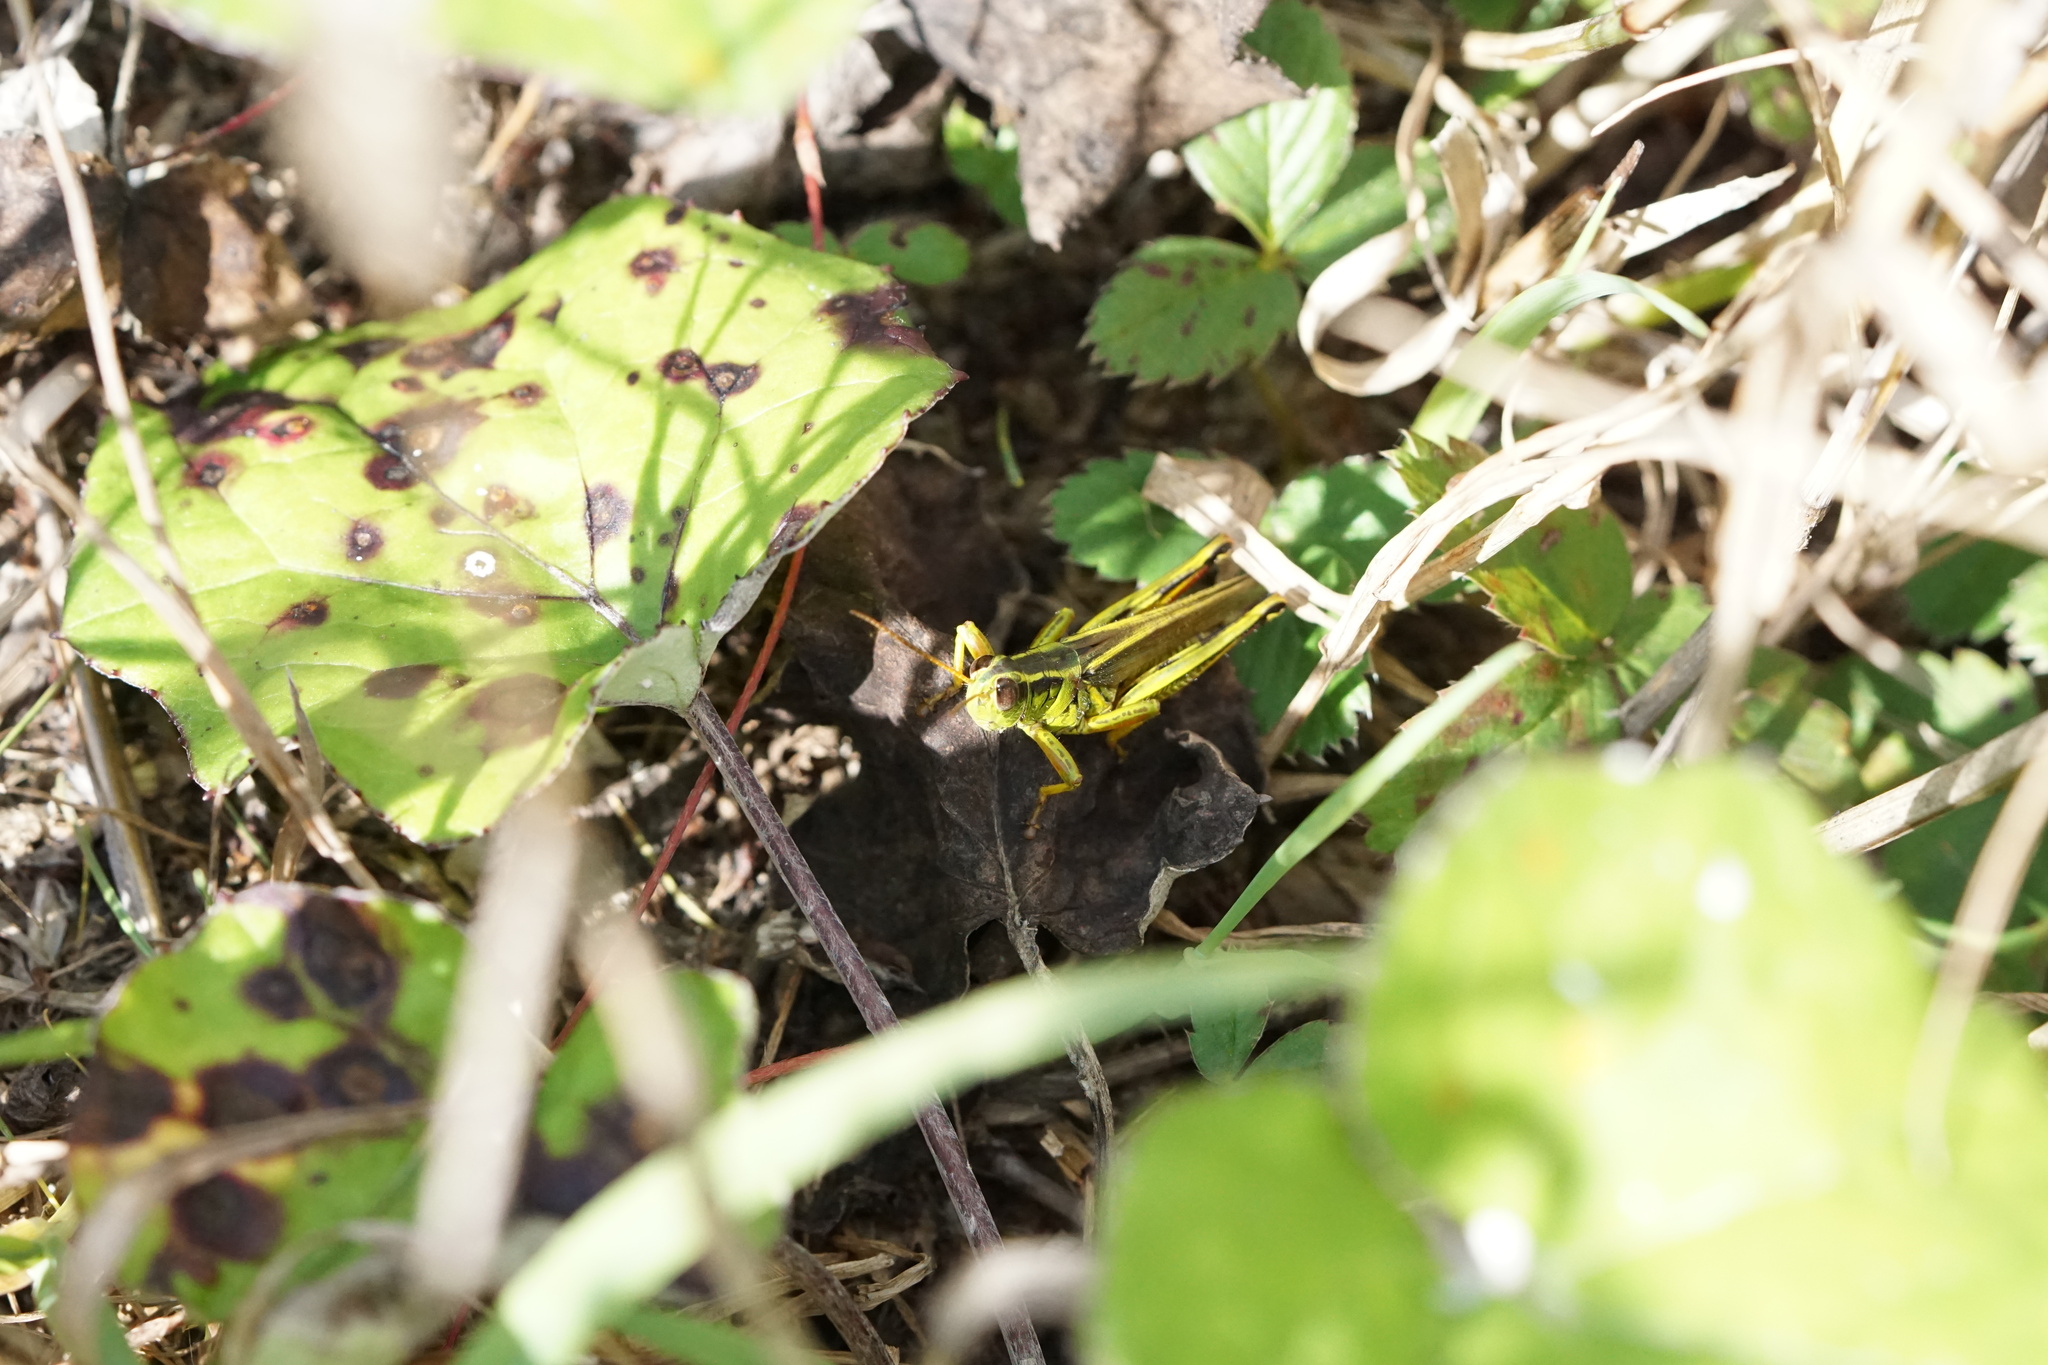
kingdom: Animalia
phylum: Arthropoda
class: Insecta
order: Orthoptera
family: Acrididae
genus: Melanoplus
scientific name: Melanoplus bivittatus
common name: Two-striped grasshopper
